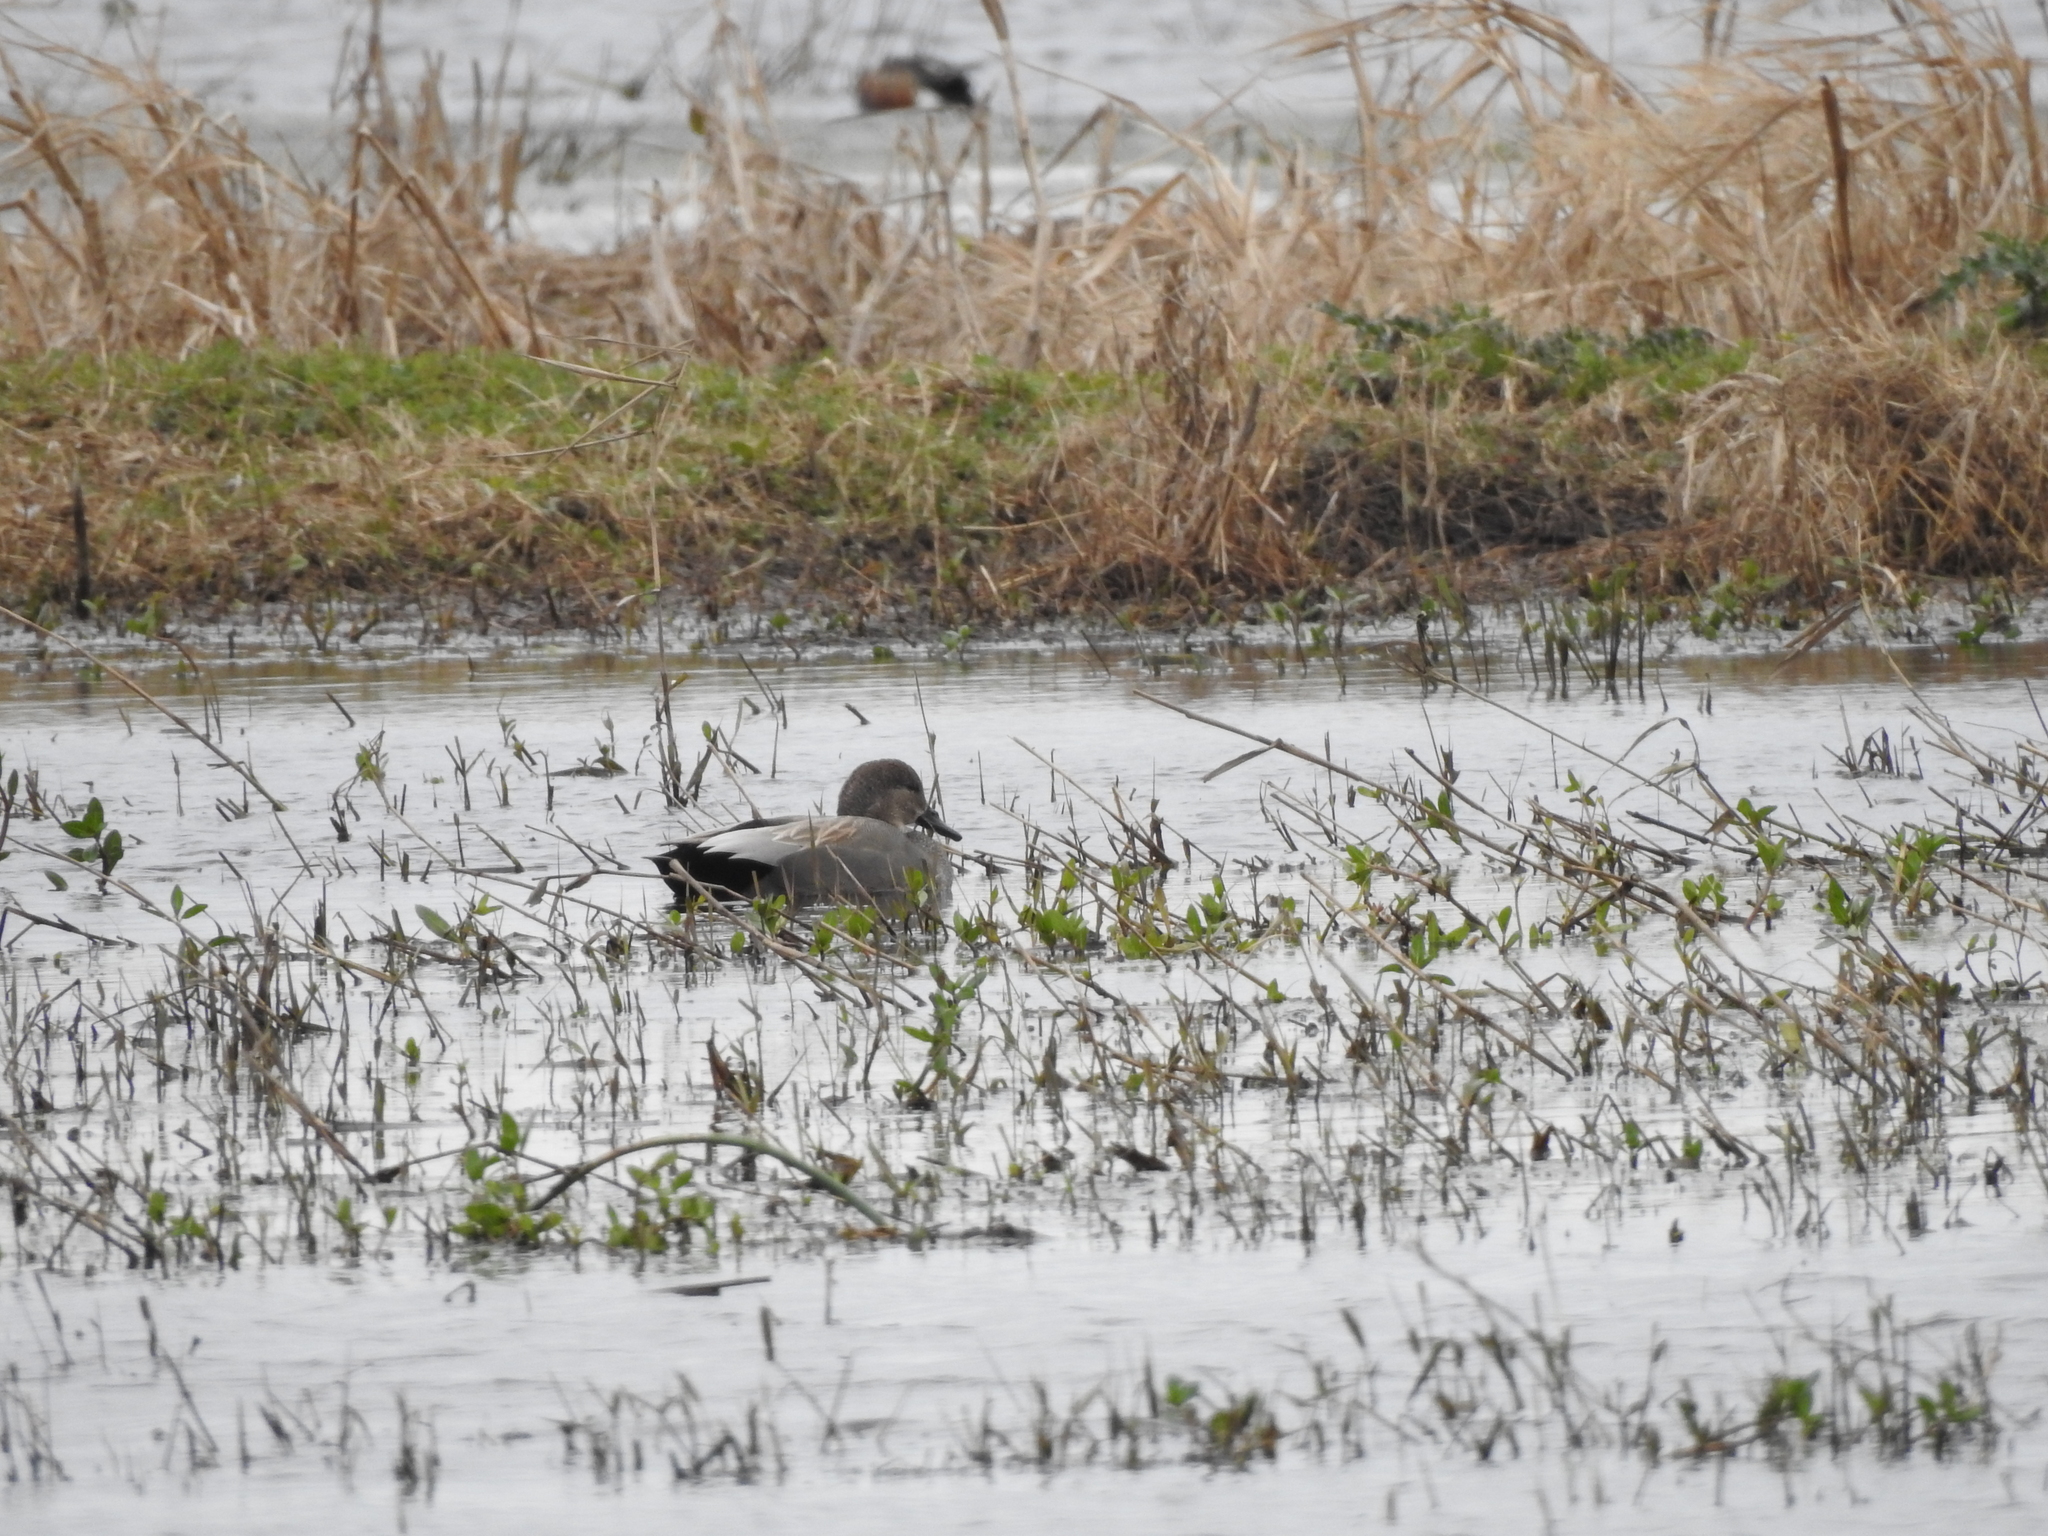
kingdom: Animalia
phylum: Chordata
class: Aves
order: Anseriformes
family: Anatidae
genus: Mareca
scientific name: Mareca strepera
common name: Gadwall
